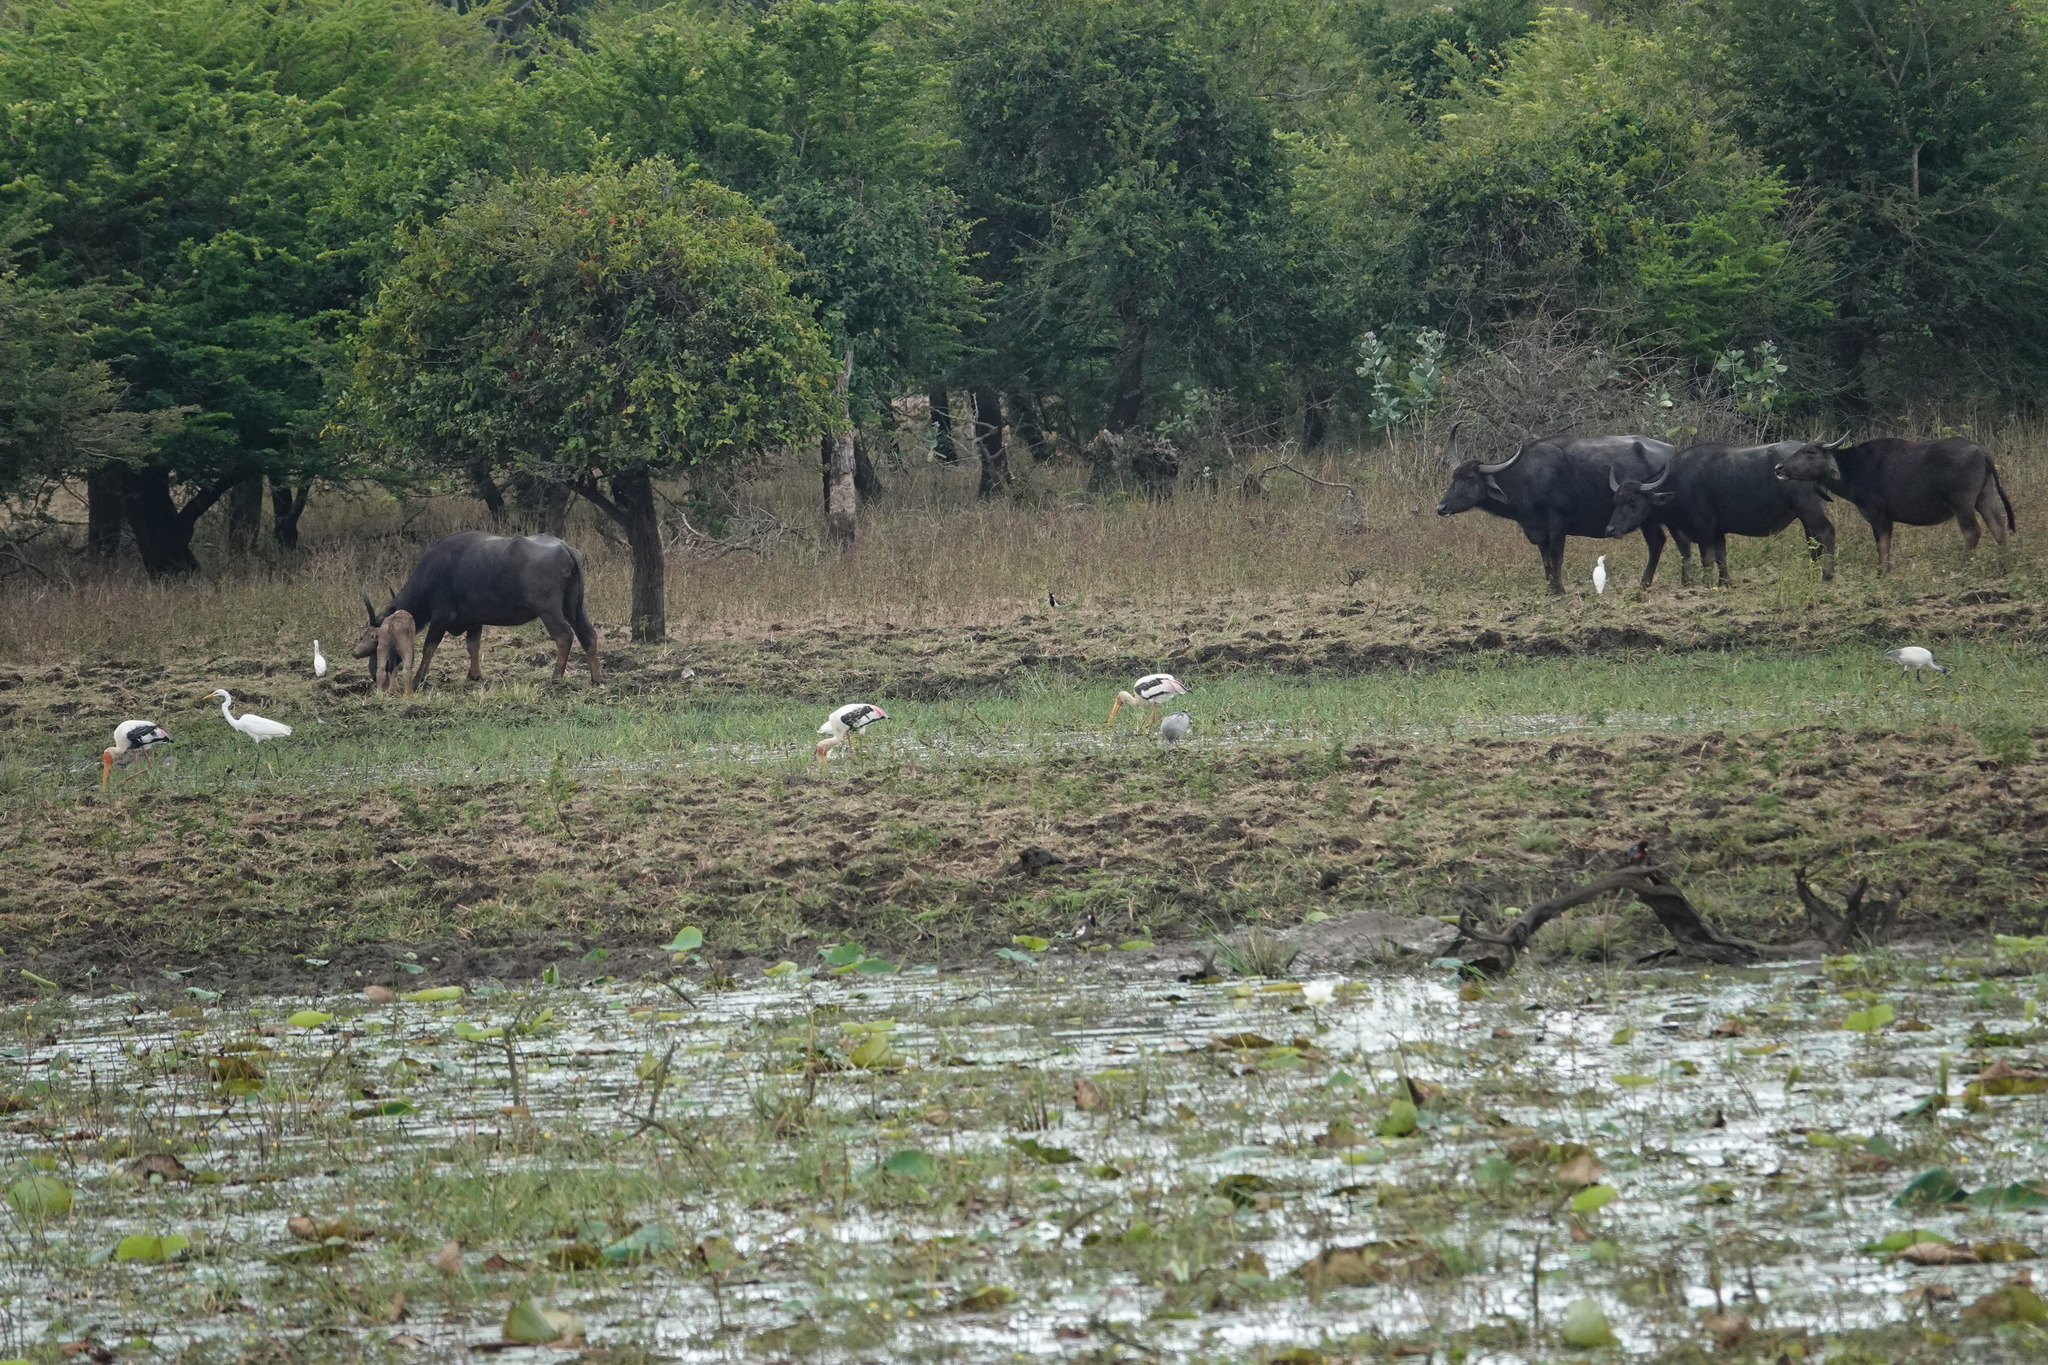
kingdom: Animalia
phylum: Chordata
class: Mammalia
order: Artiodactyla
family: Bovidae
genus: Bubalus
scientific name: Bubalus bubalis
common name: Water buffalo
